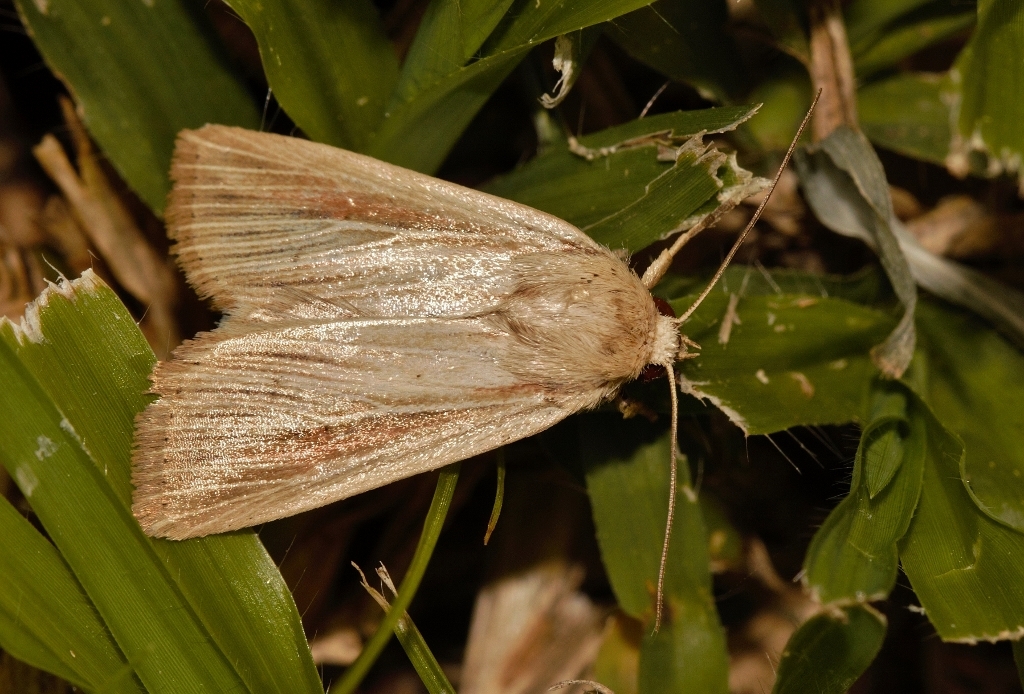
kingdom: Animalia
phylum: Arthropoda
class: Insecta
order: Lepidoptera
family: Noctuidae
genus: Vietteania
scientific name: Vietteania torrentium
